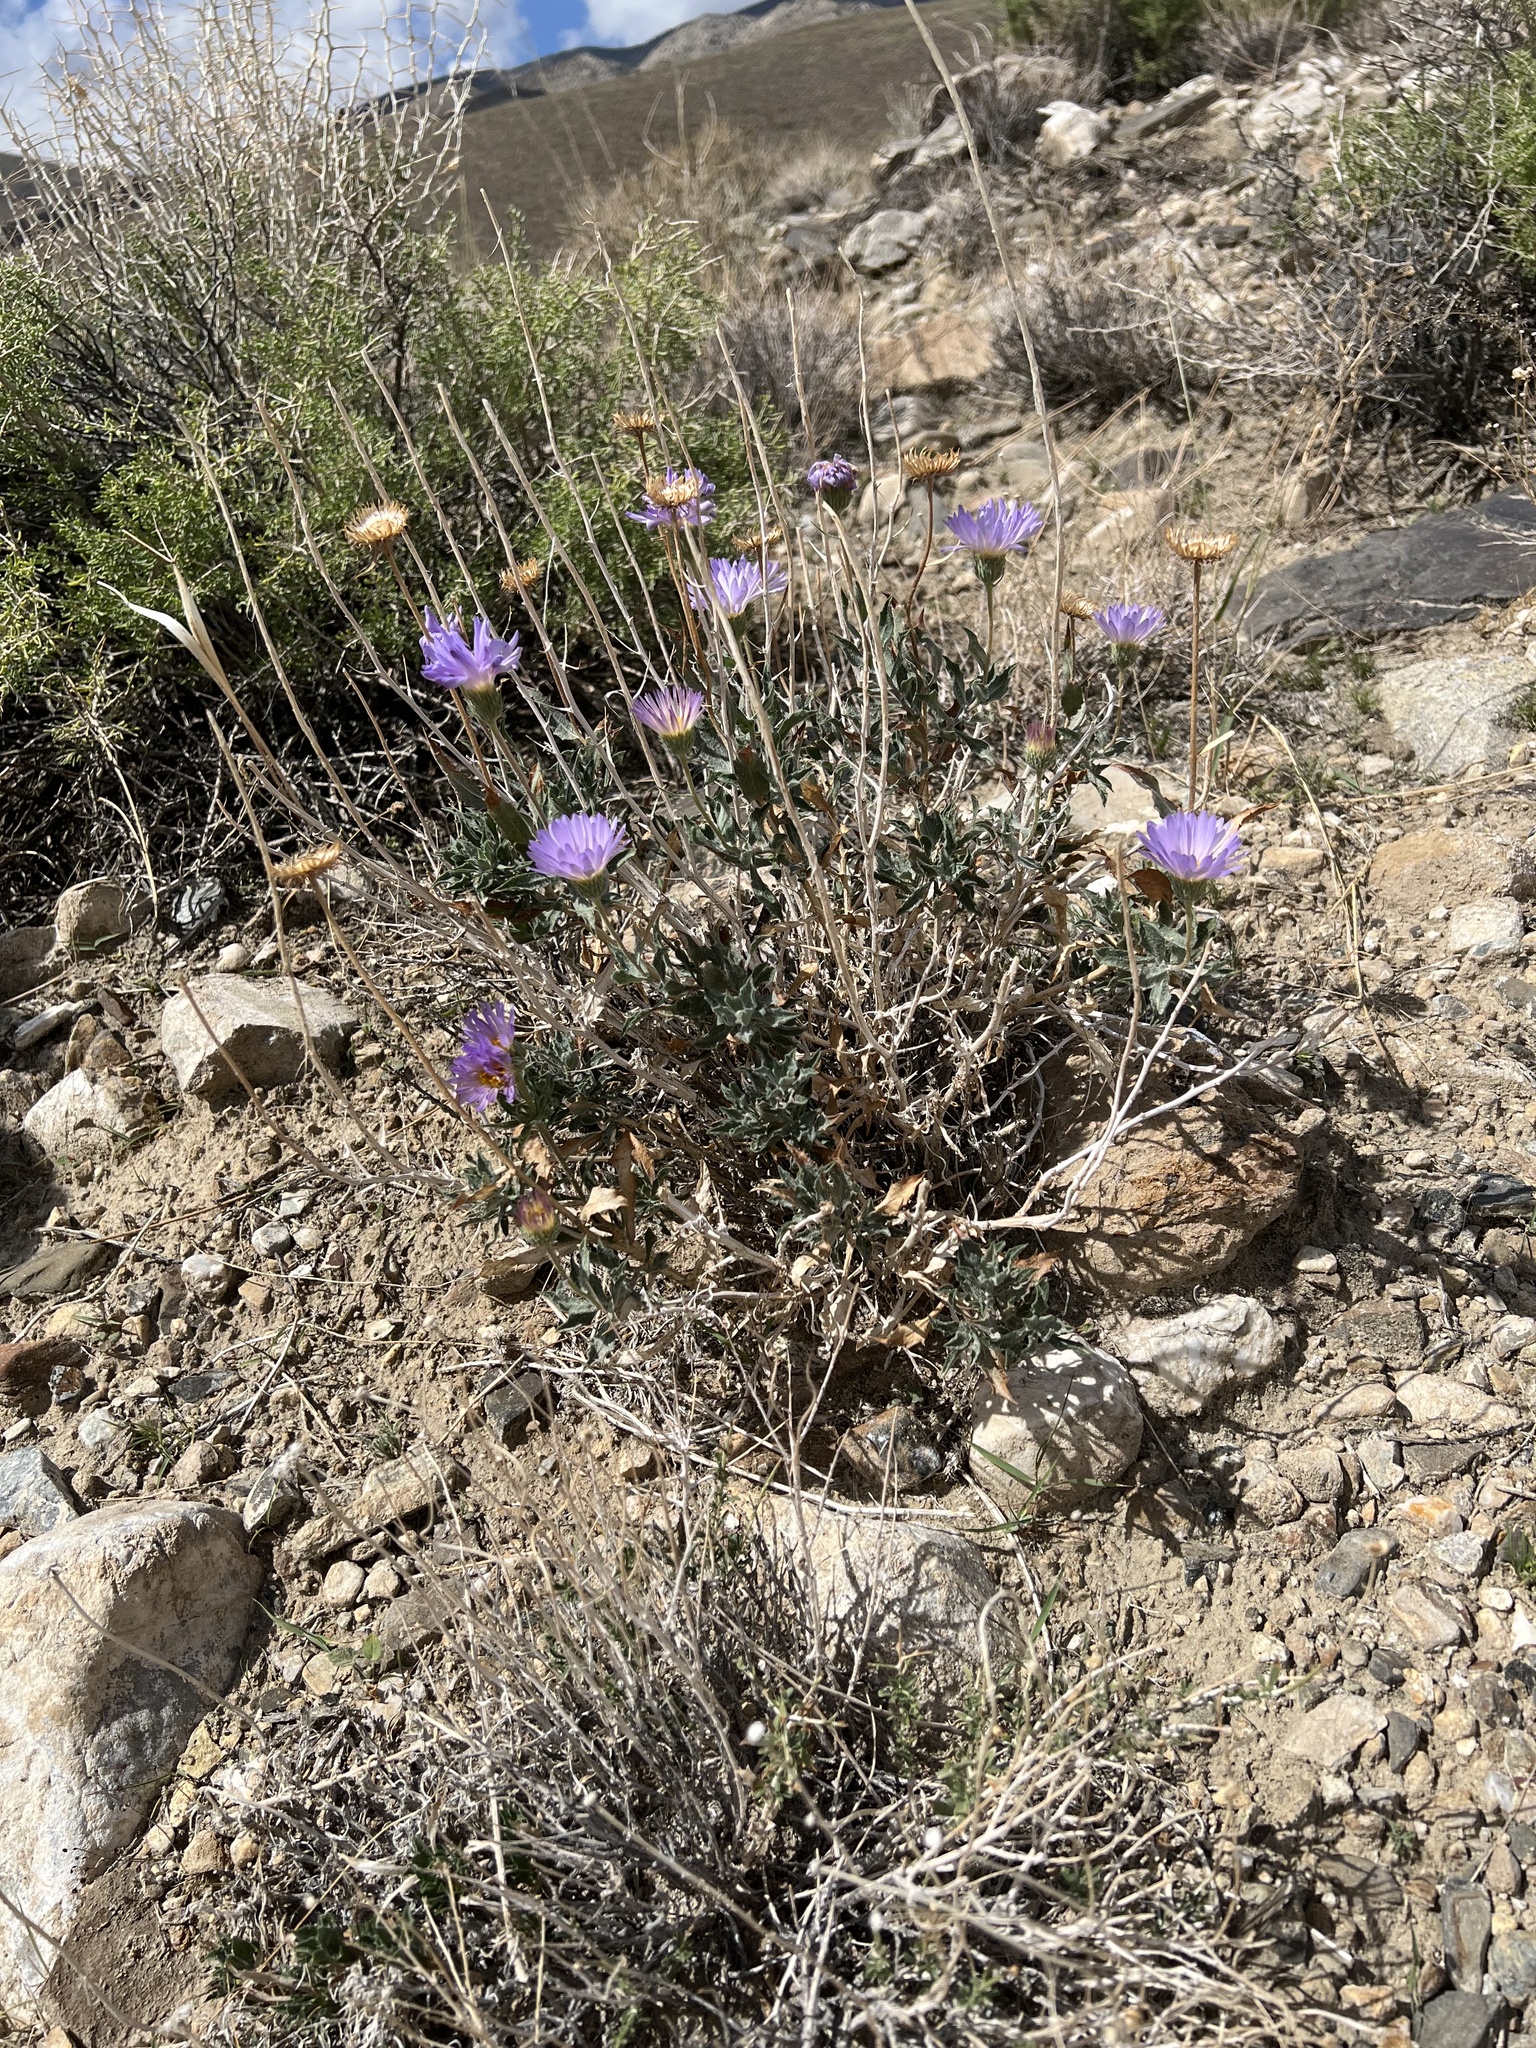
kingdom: Plantae
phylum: Tracheophyta
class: Magnoliopsida
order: Asterales
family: Asteraceae
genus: Xylorhiza
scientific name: Xylorhiza tortifolia
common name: Hurt-leaf woody-aster
